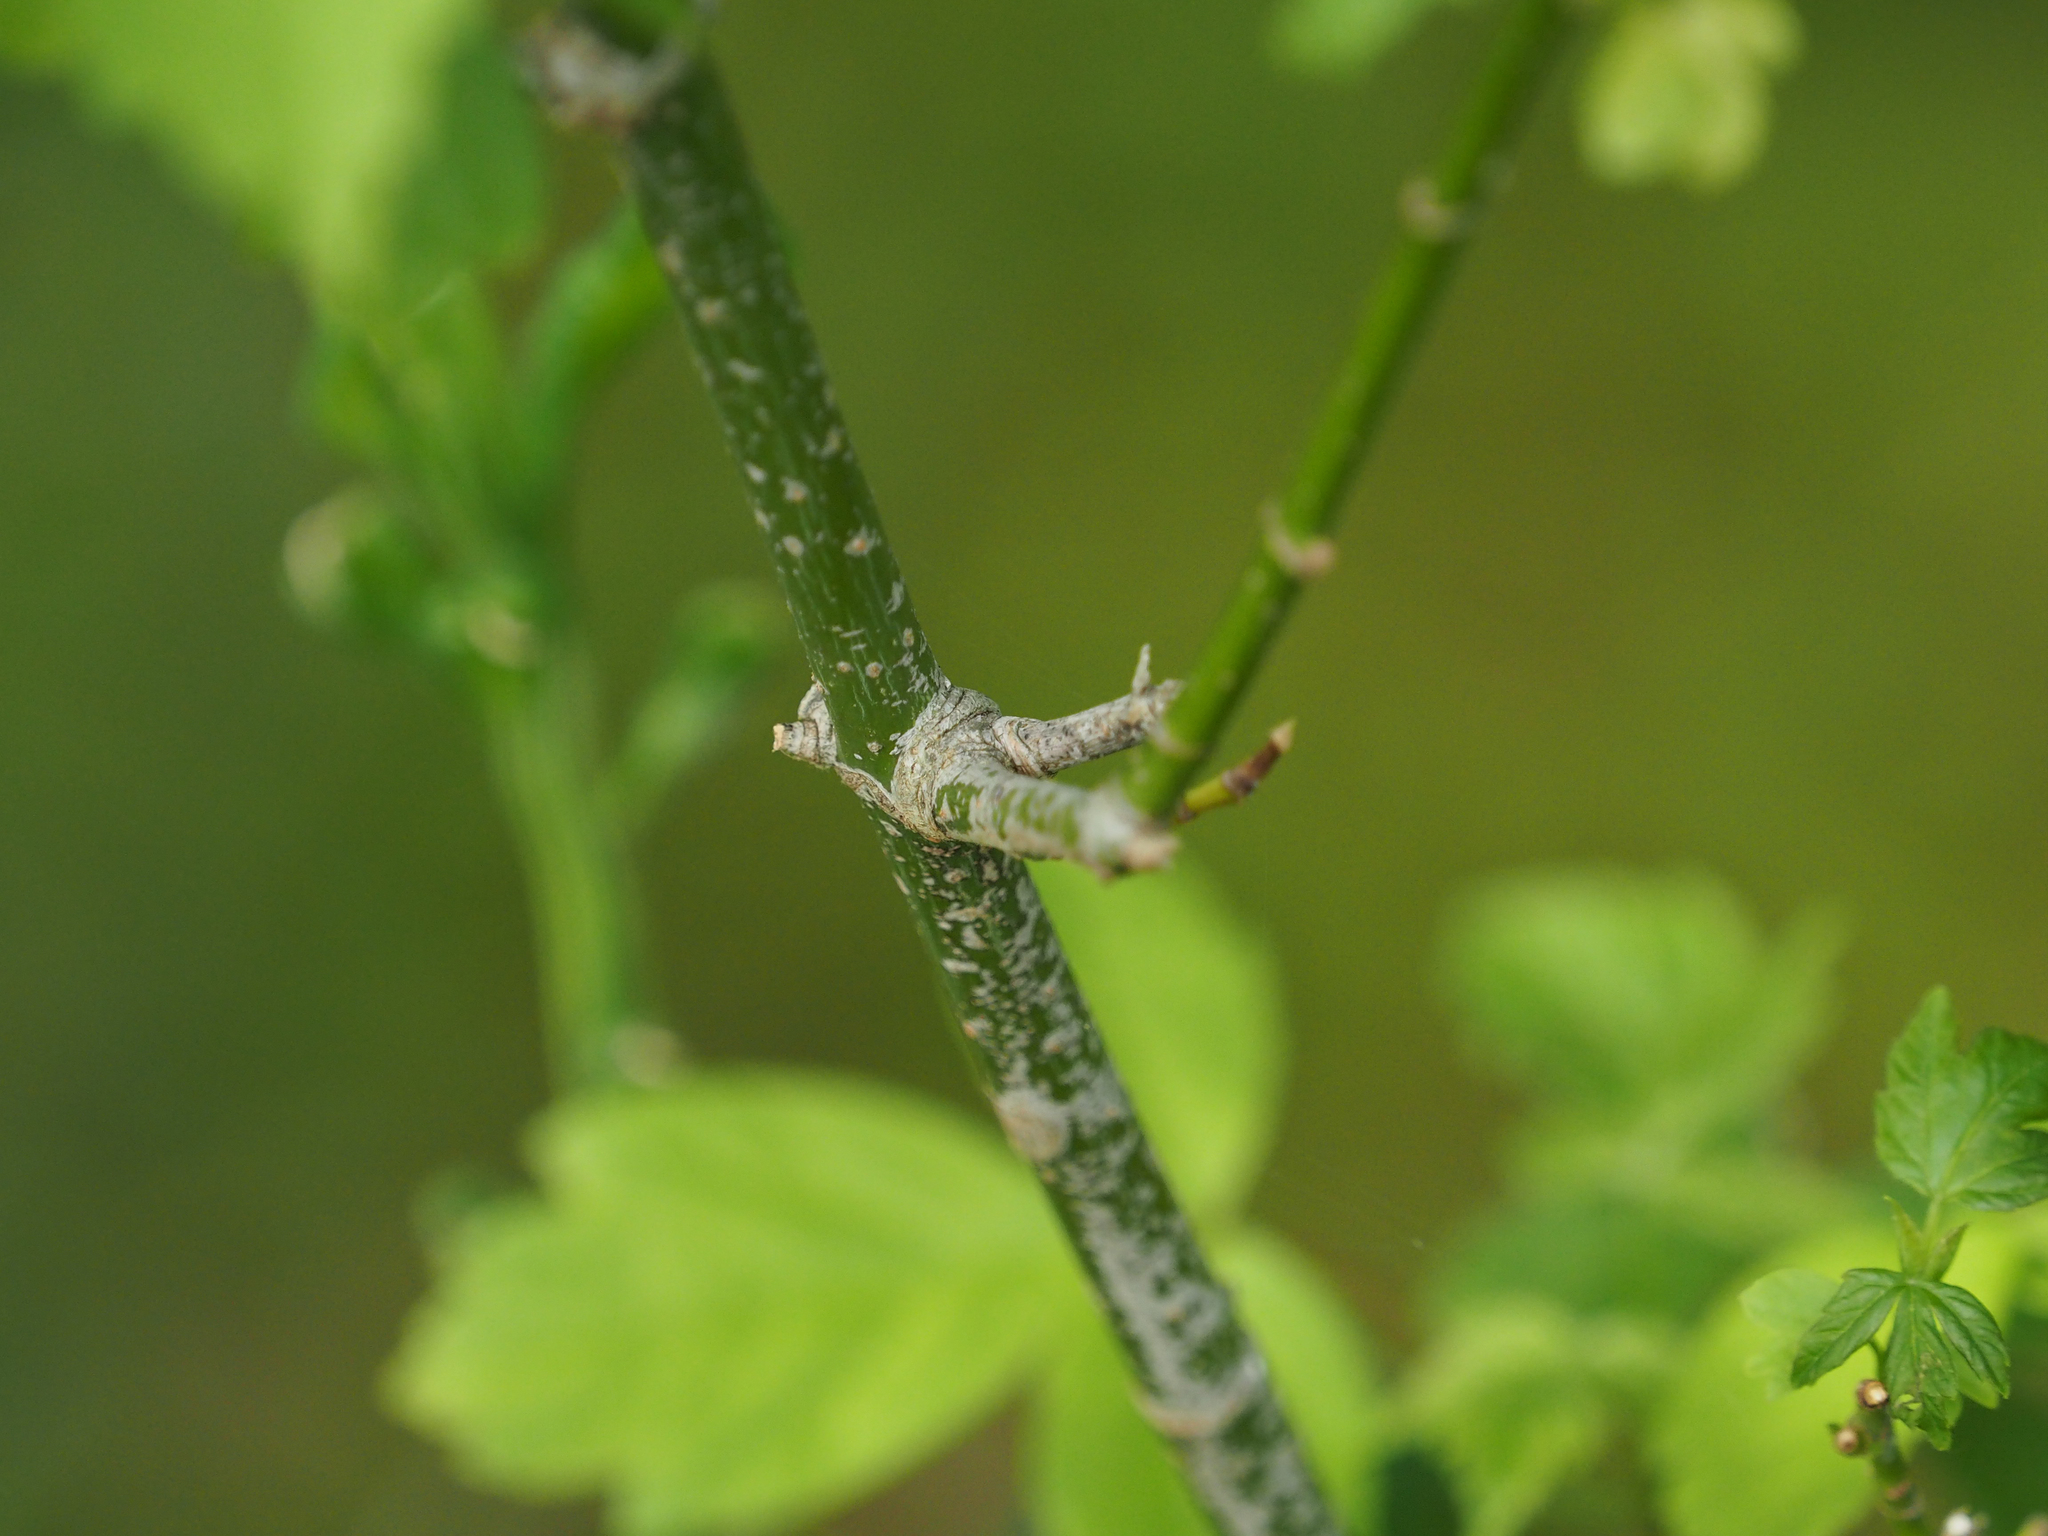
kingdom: Plantae
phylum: Tracheophyta
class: Magnoliopsida
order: Sapindales
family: Sapindaceae
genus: Acer
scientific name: Acer negundo
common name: Ashleaf maple
